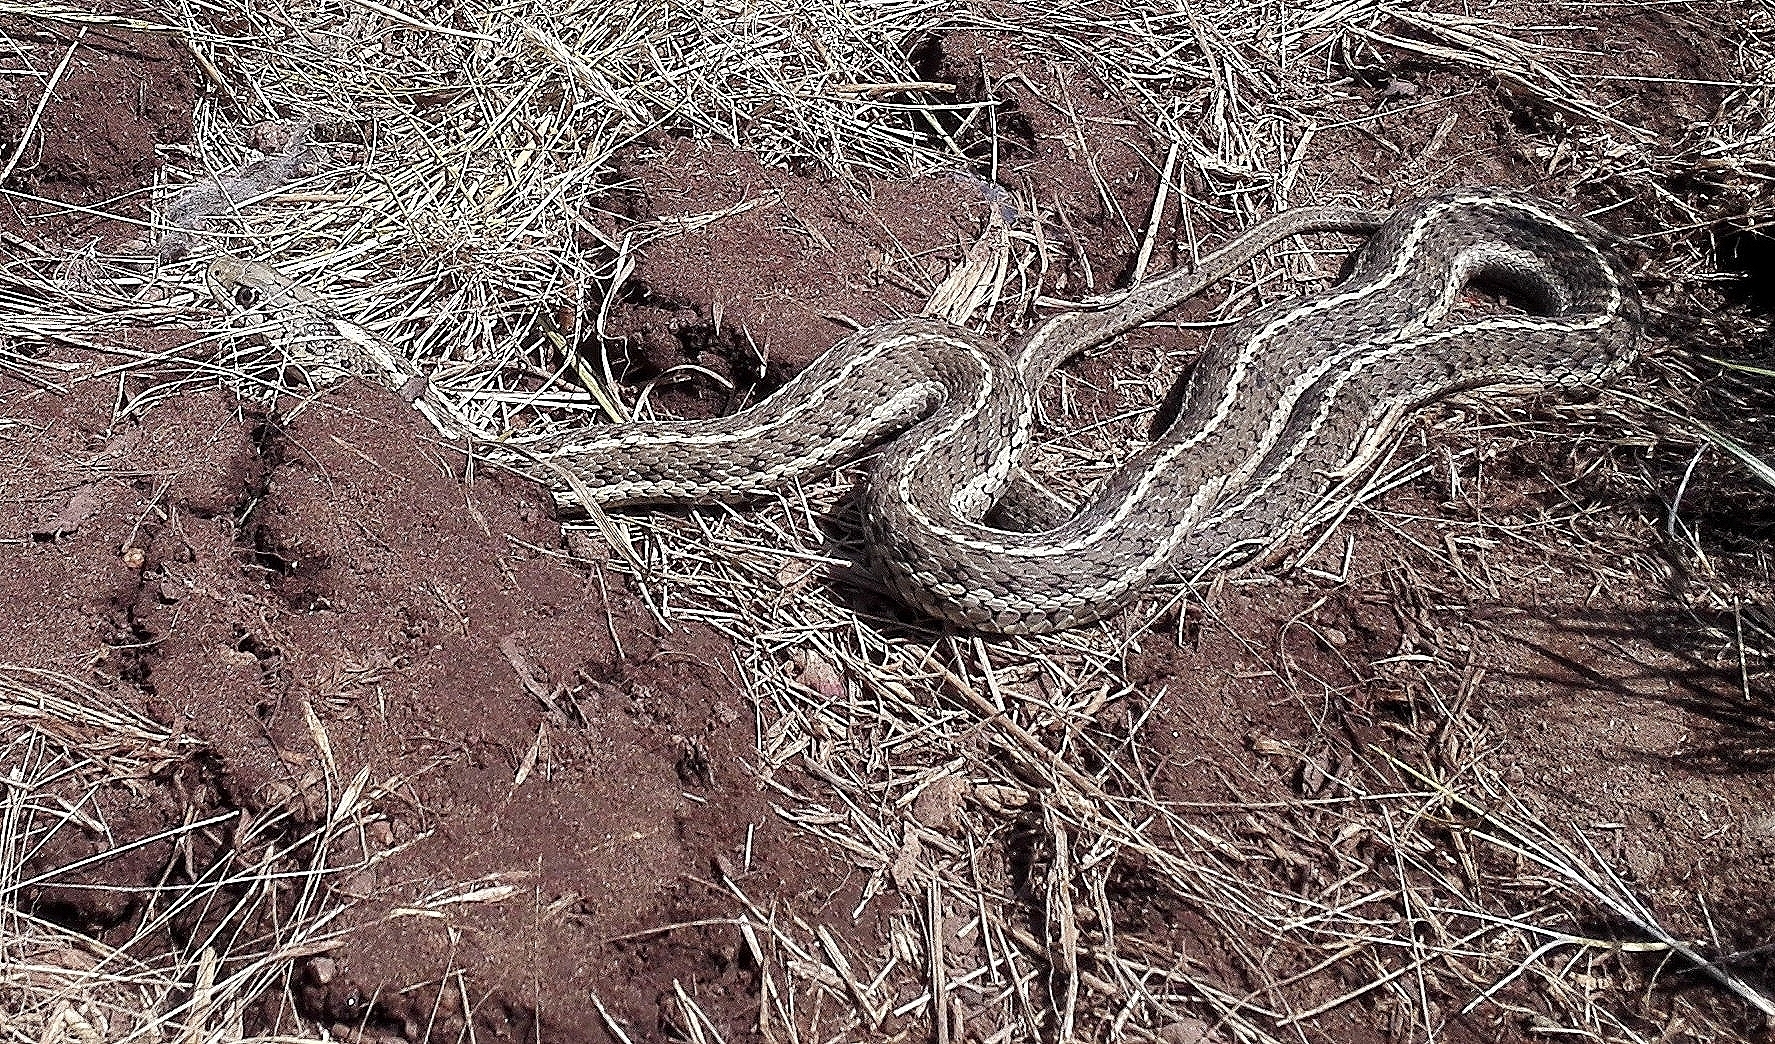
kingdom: Animalia
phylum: Chordata
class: Squamata
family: Colubridae
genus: Thamnophis
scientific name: Thamnophis elegans
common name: Western terrestrial garter snake
